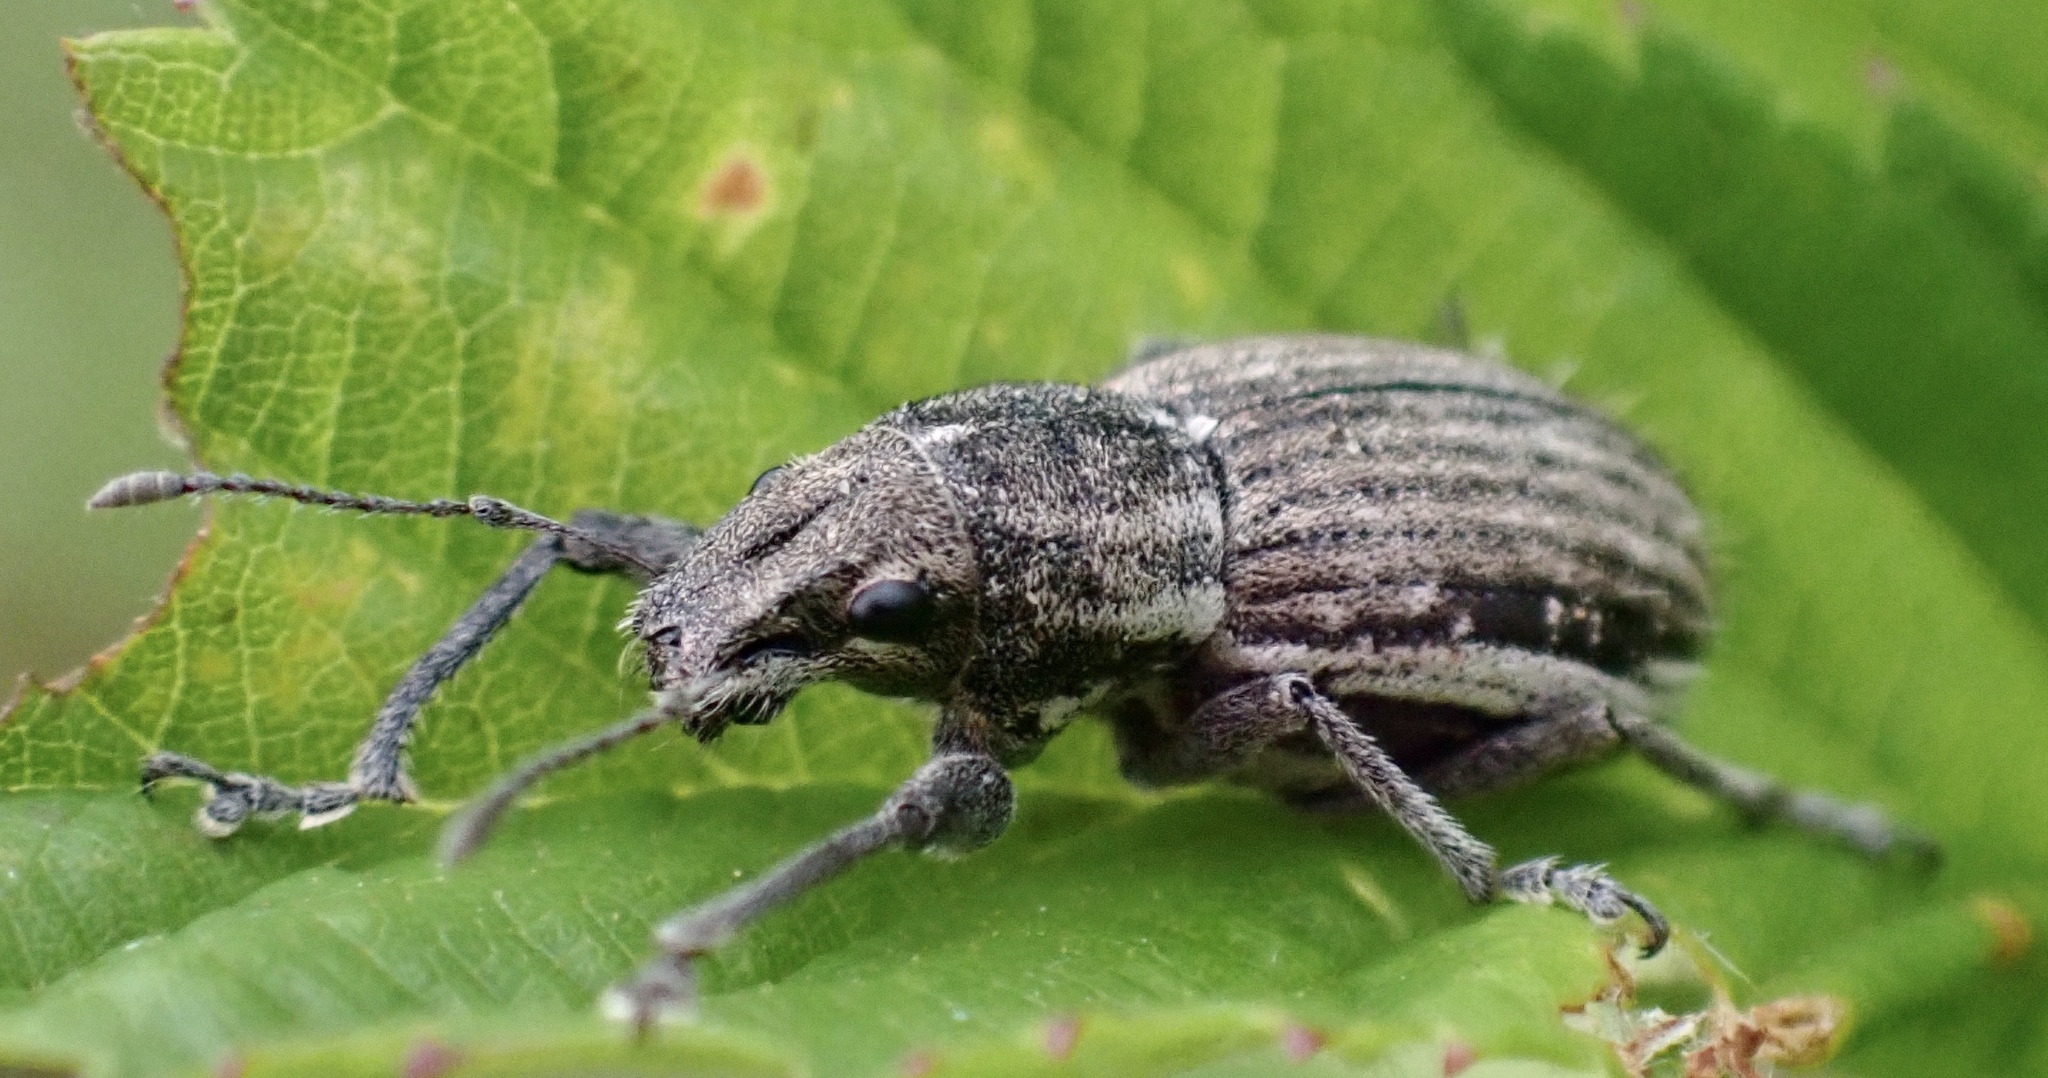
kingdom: Animalia
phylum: Arthropoda
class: Insecta
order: Coleoptera
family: Curculionidae
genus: Naupactus
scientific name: Naupactus leucoloma
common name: Whitefringed beetle
